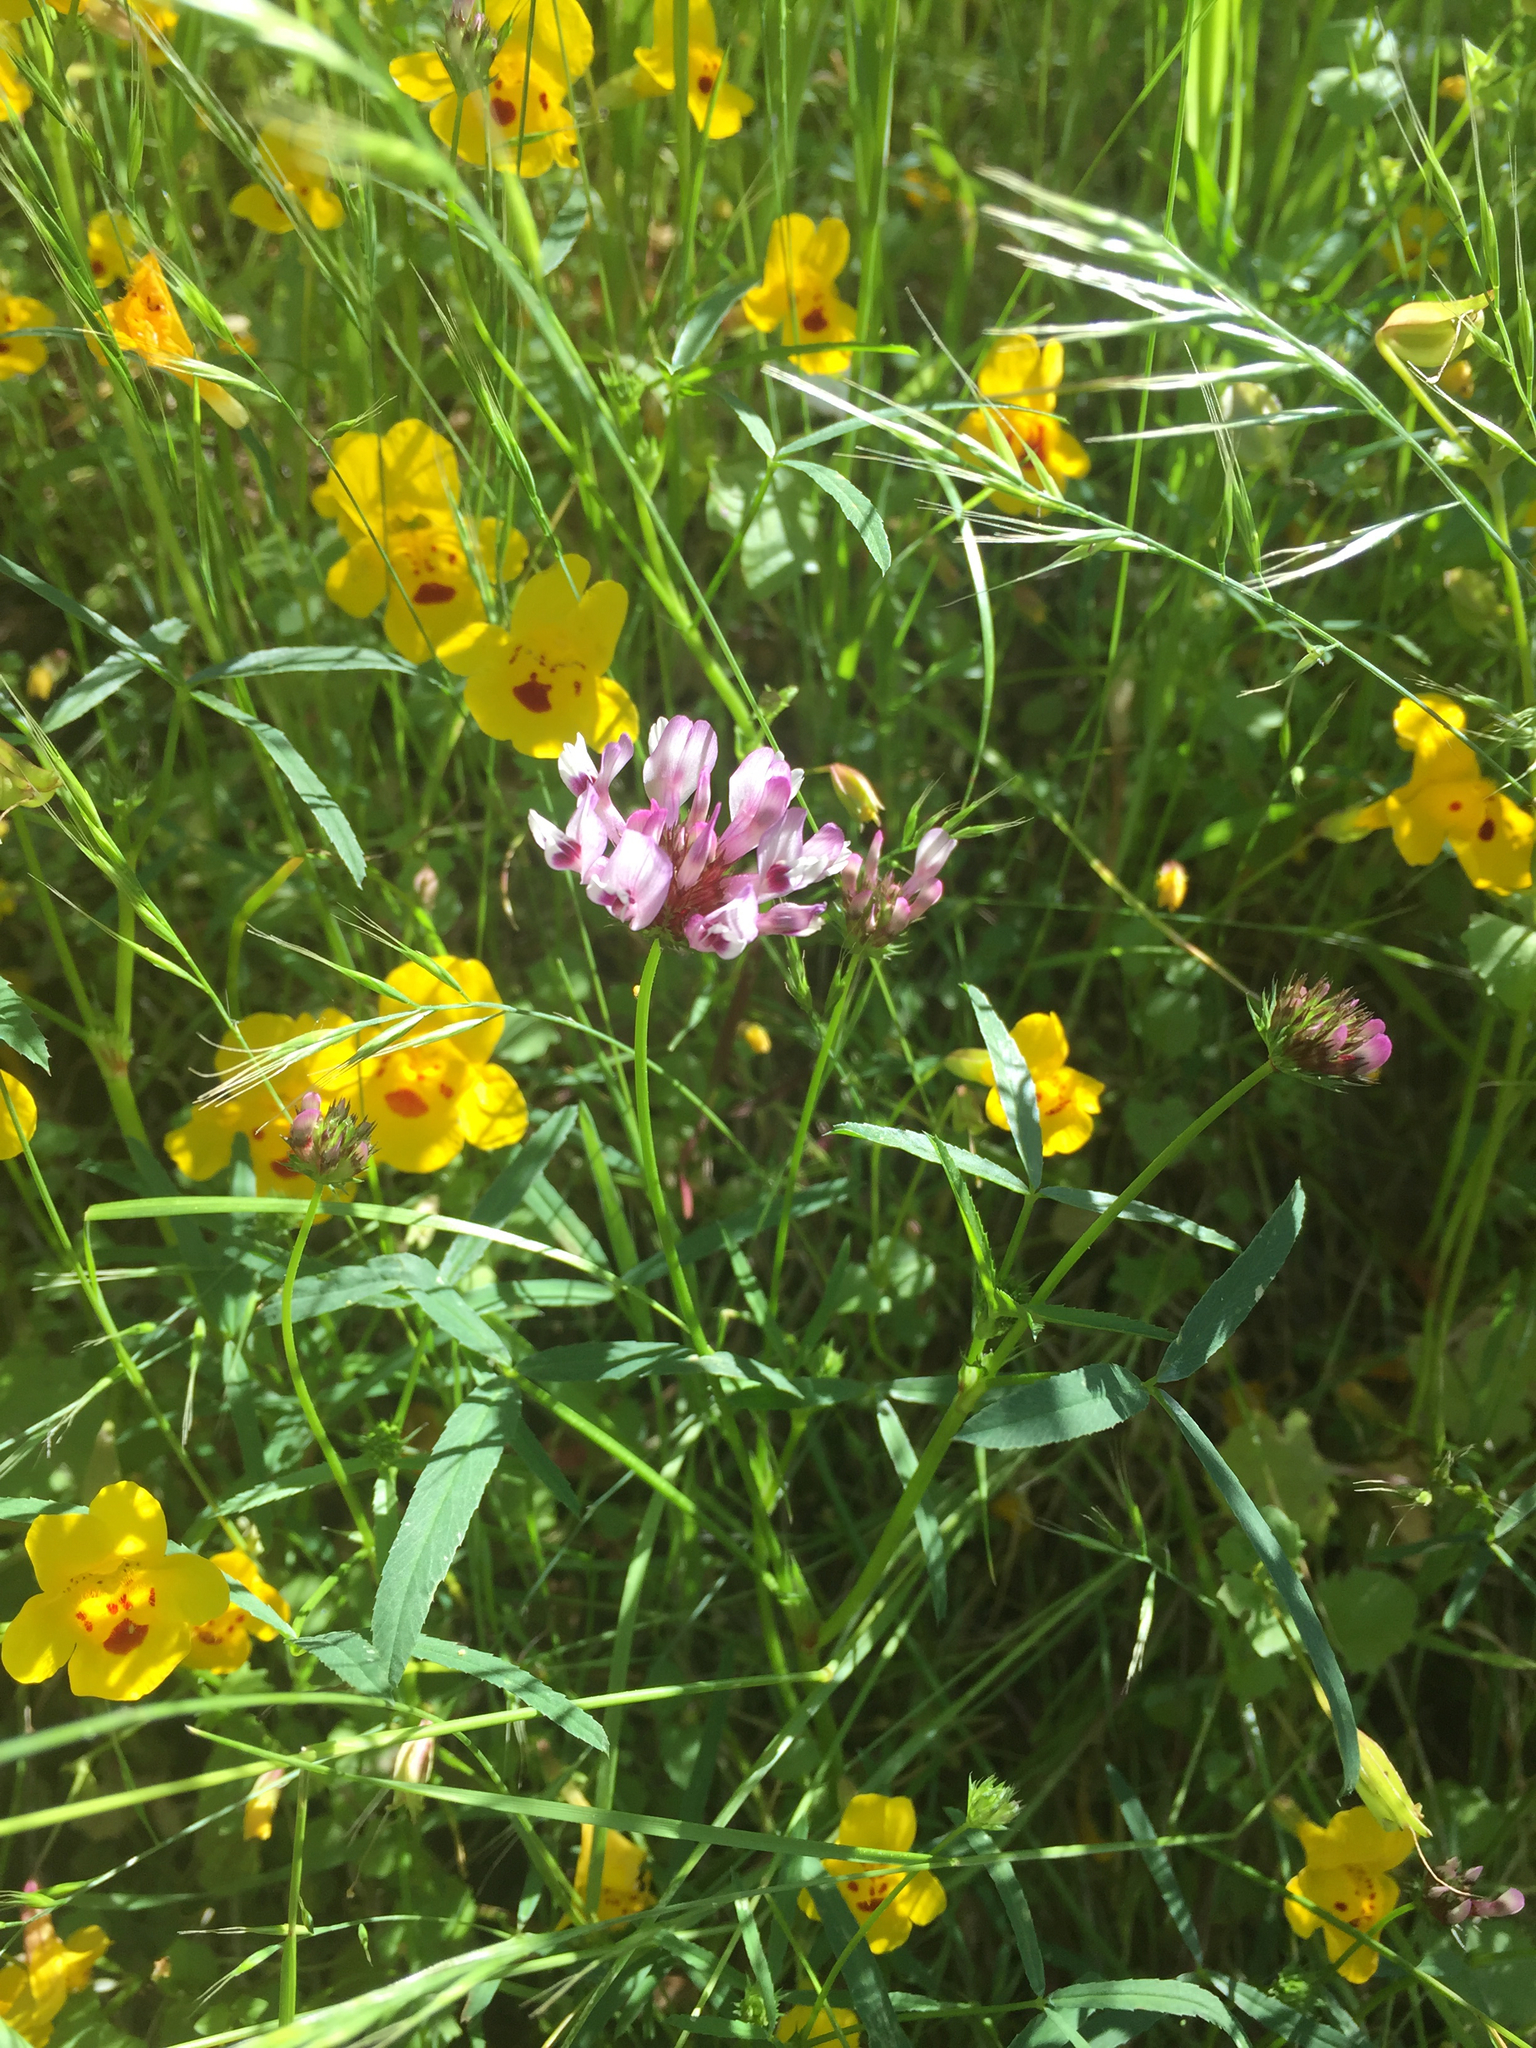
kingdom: Plantae
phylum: Tracheophyta
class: Magnoliopsida
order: Fabales
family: Fabaceae
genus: Trifolium
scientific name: Trifolium willdenovii
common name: Tomcat clover
